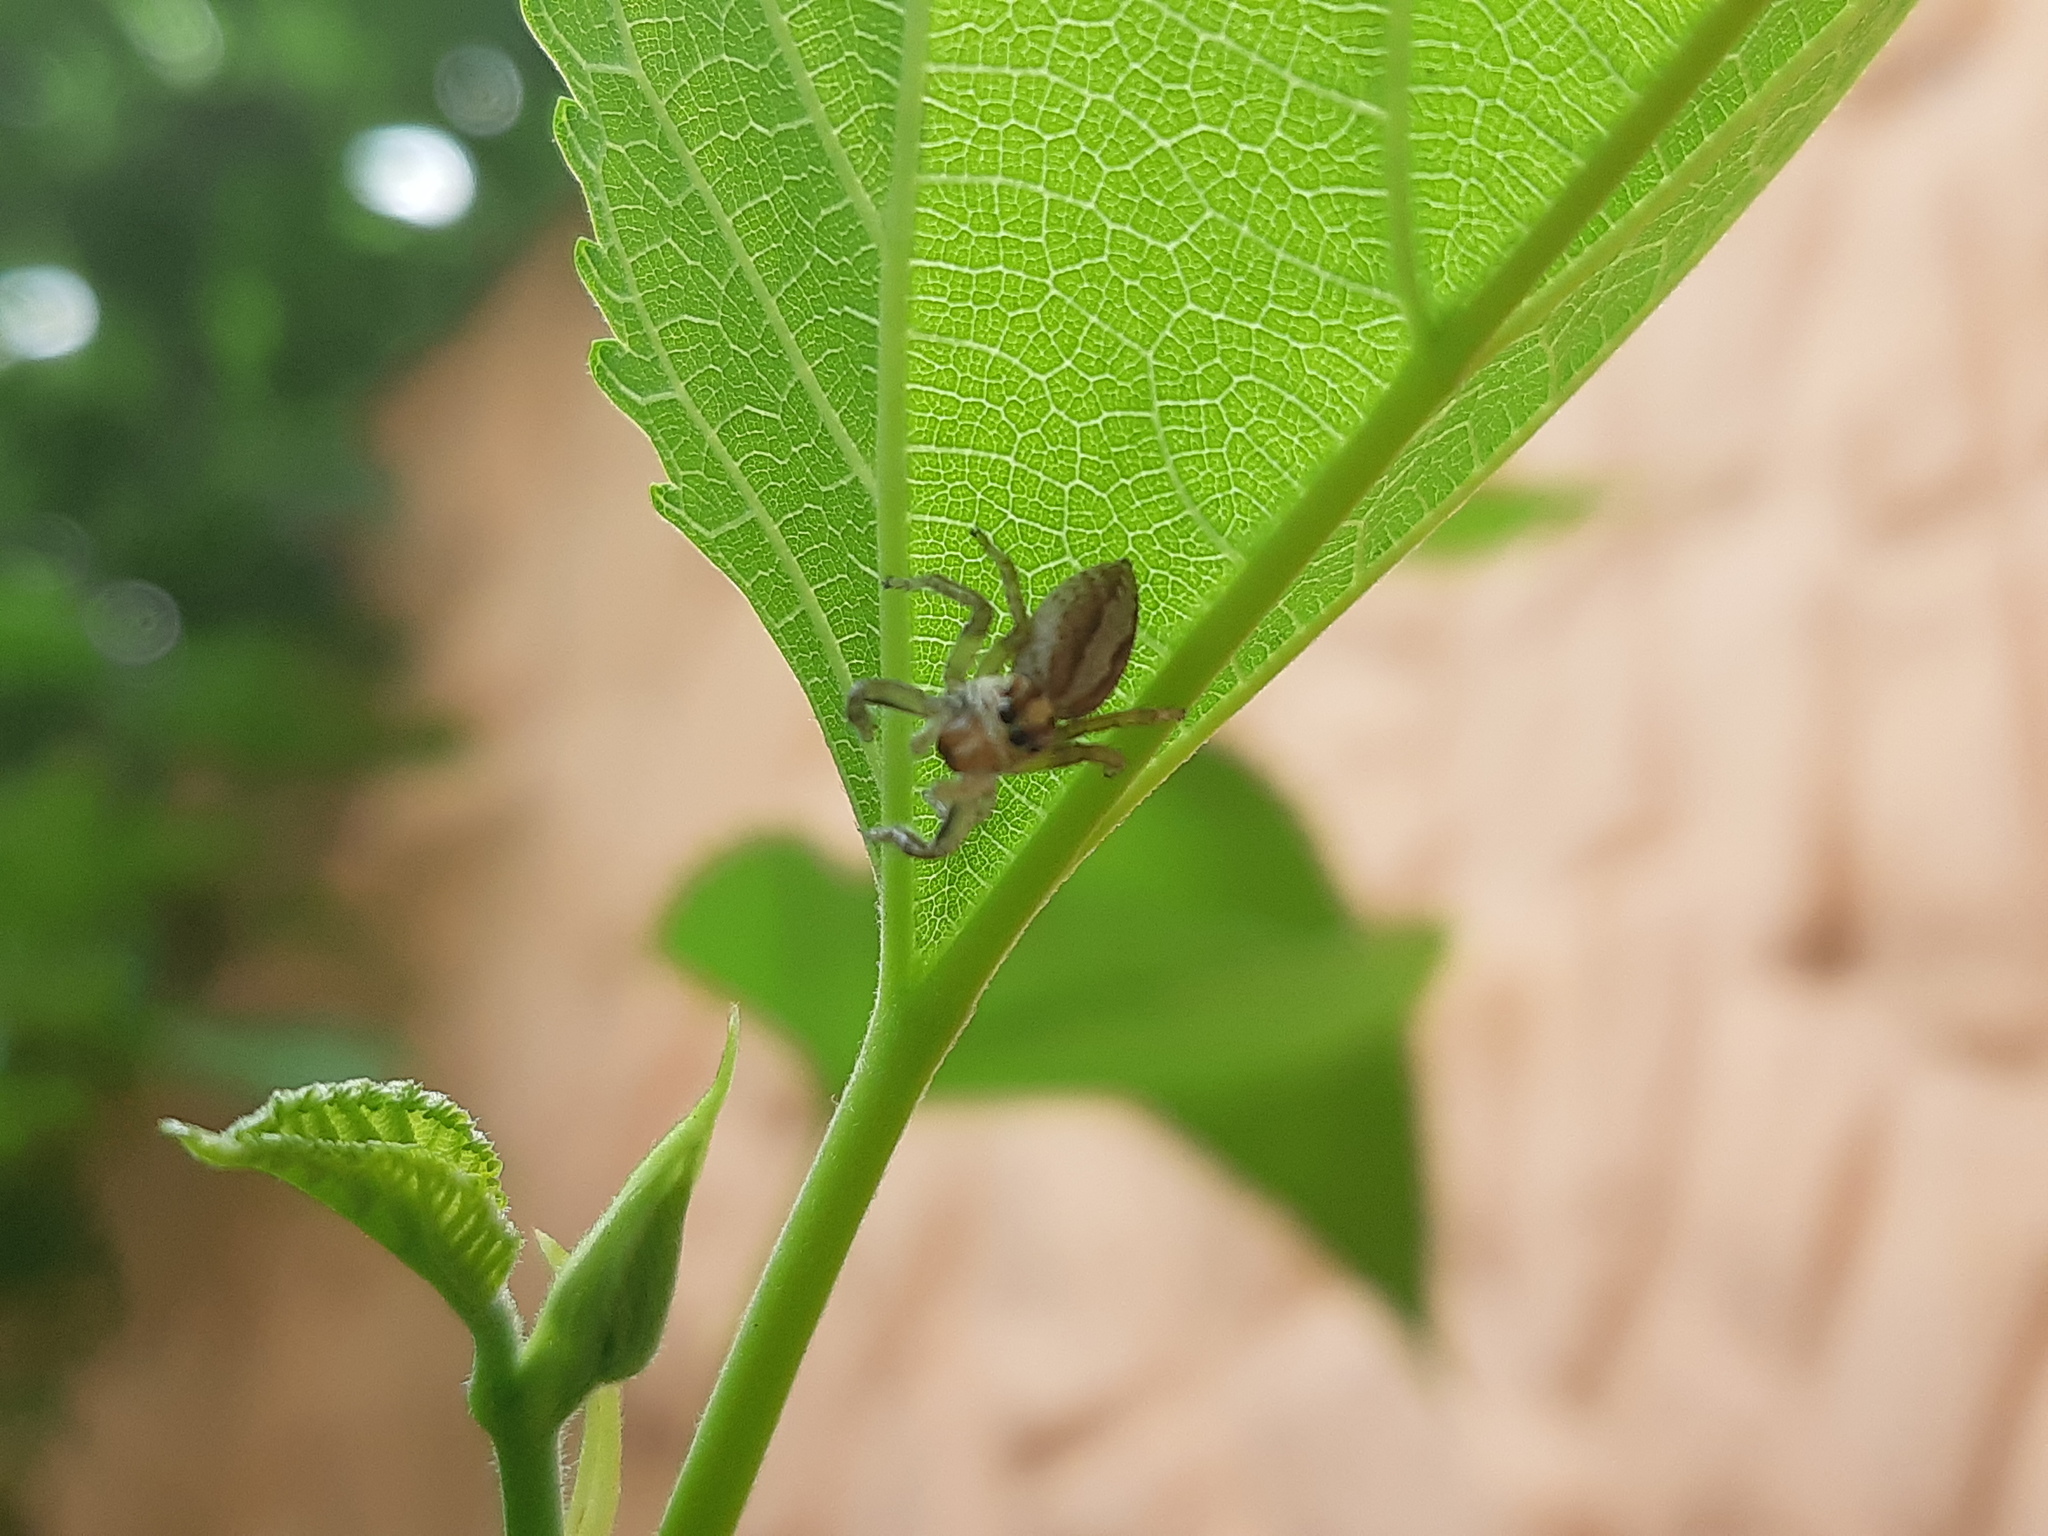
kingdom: Animalia
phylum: Arthropoda
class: Arachnida
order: Araneae
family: Salticidae
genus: Frigga
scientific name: Frigga crocuta
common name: Jumping spiders
